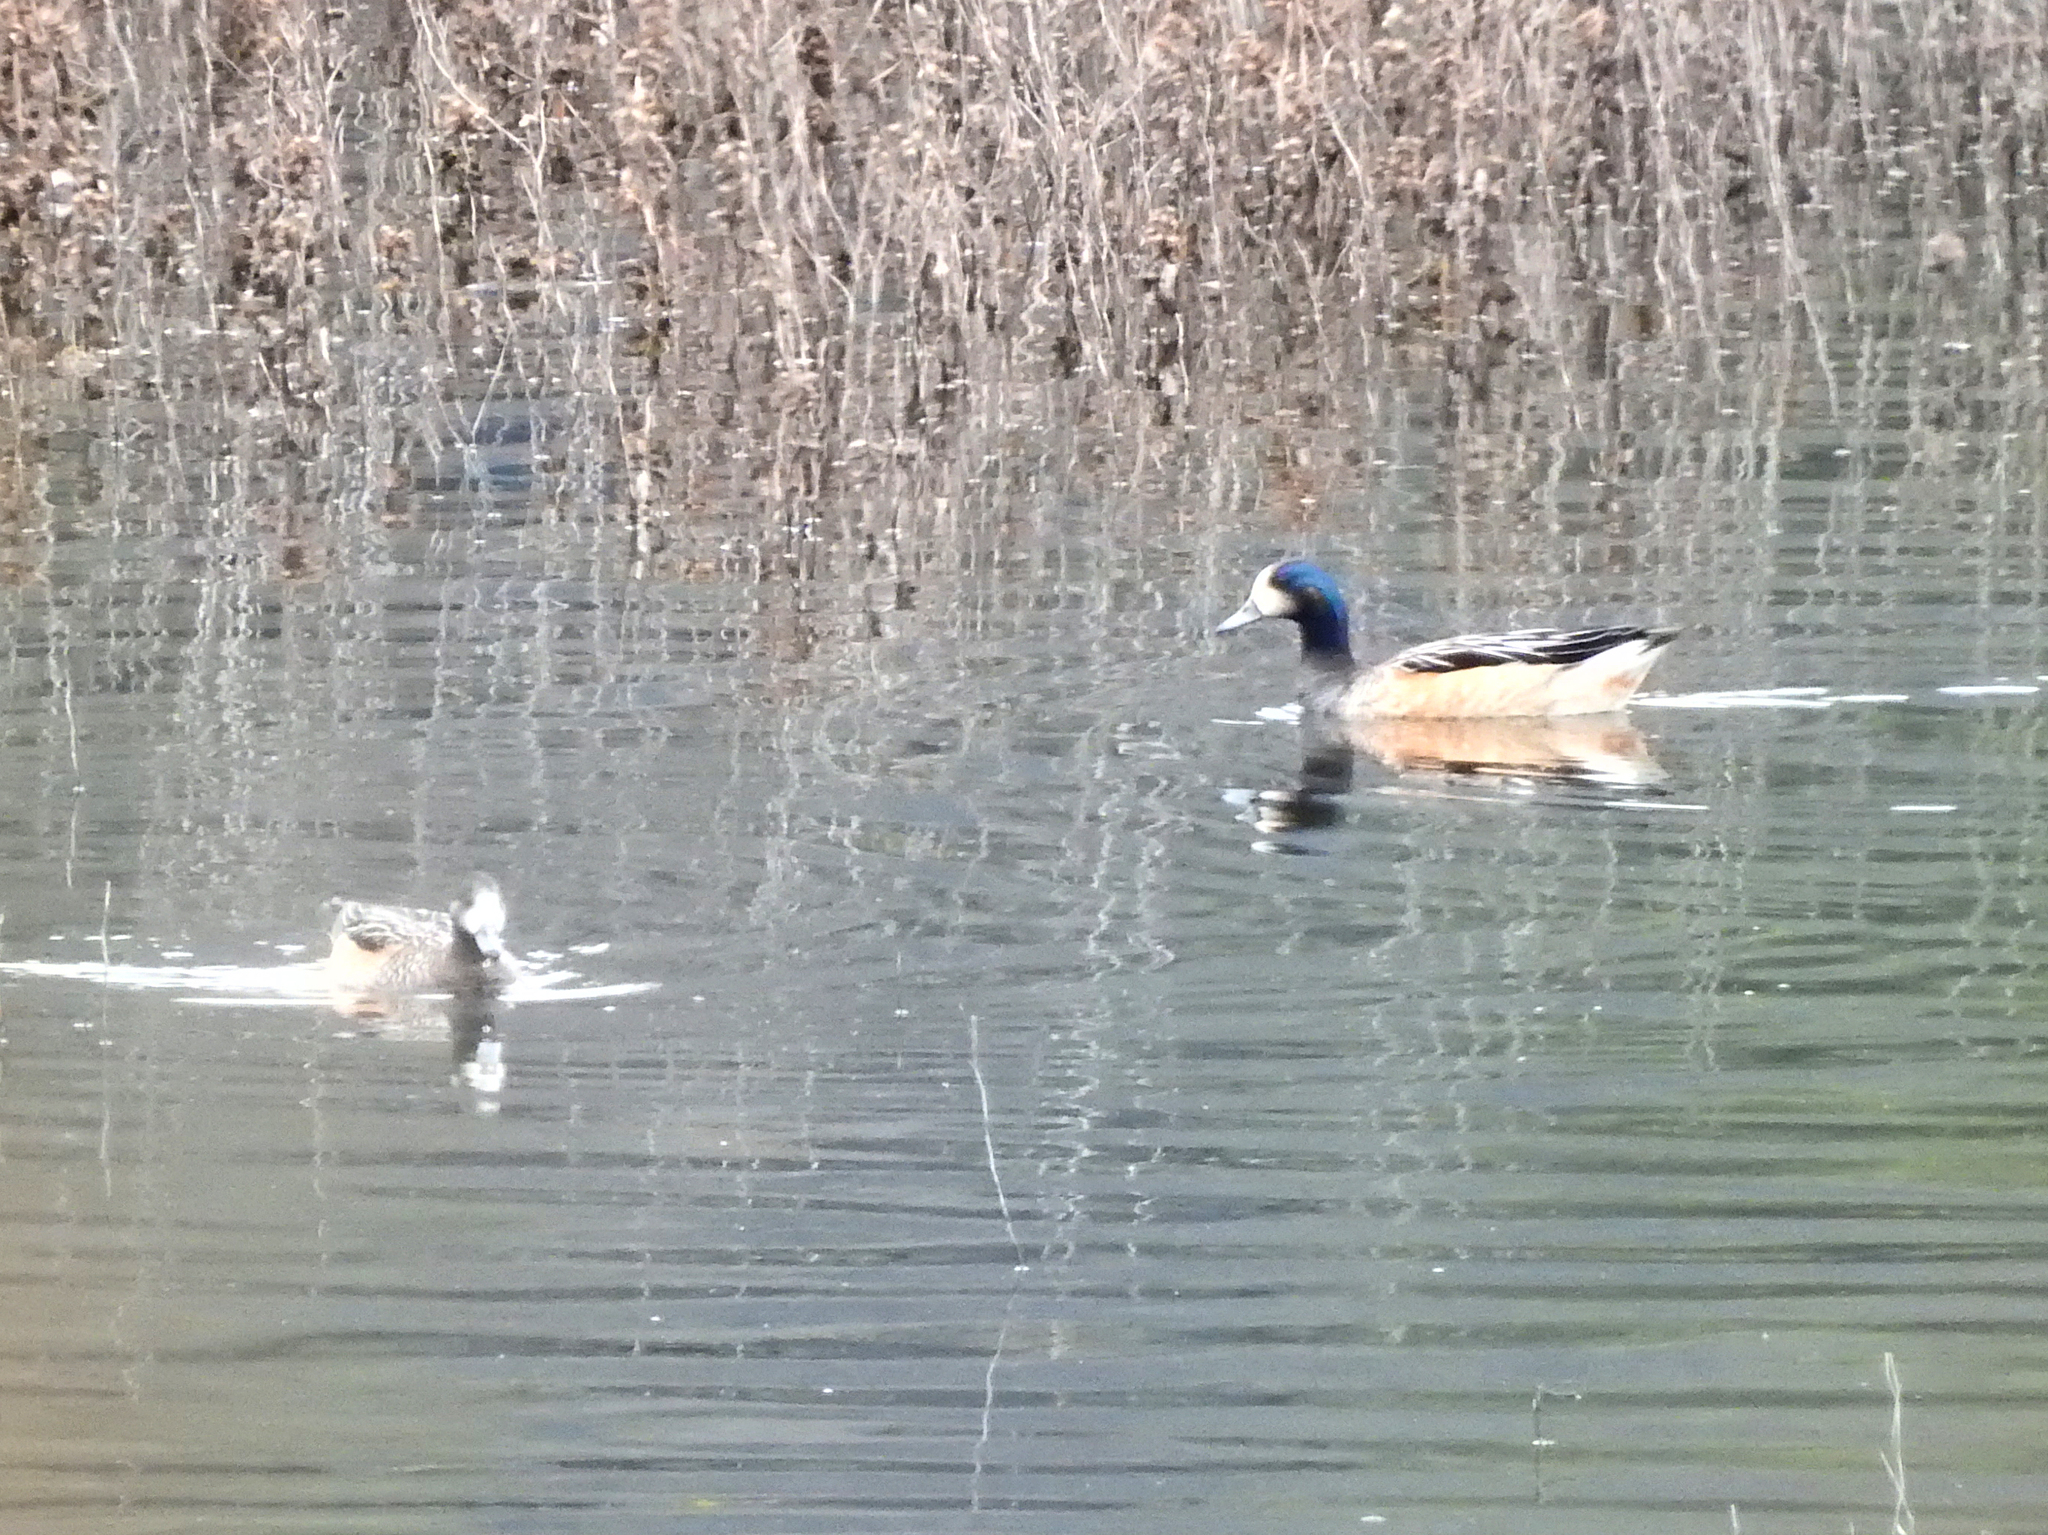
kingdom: Animalia
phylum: Chordata
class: Aves
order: Anseriformes
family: Anatidae
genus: Mareca
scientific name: Mareca sibilatrix
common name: Chiloe wigeon
